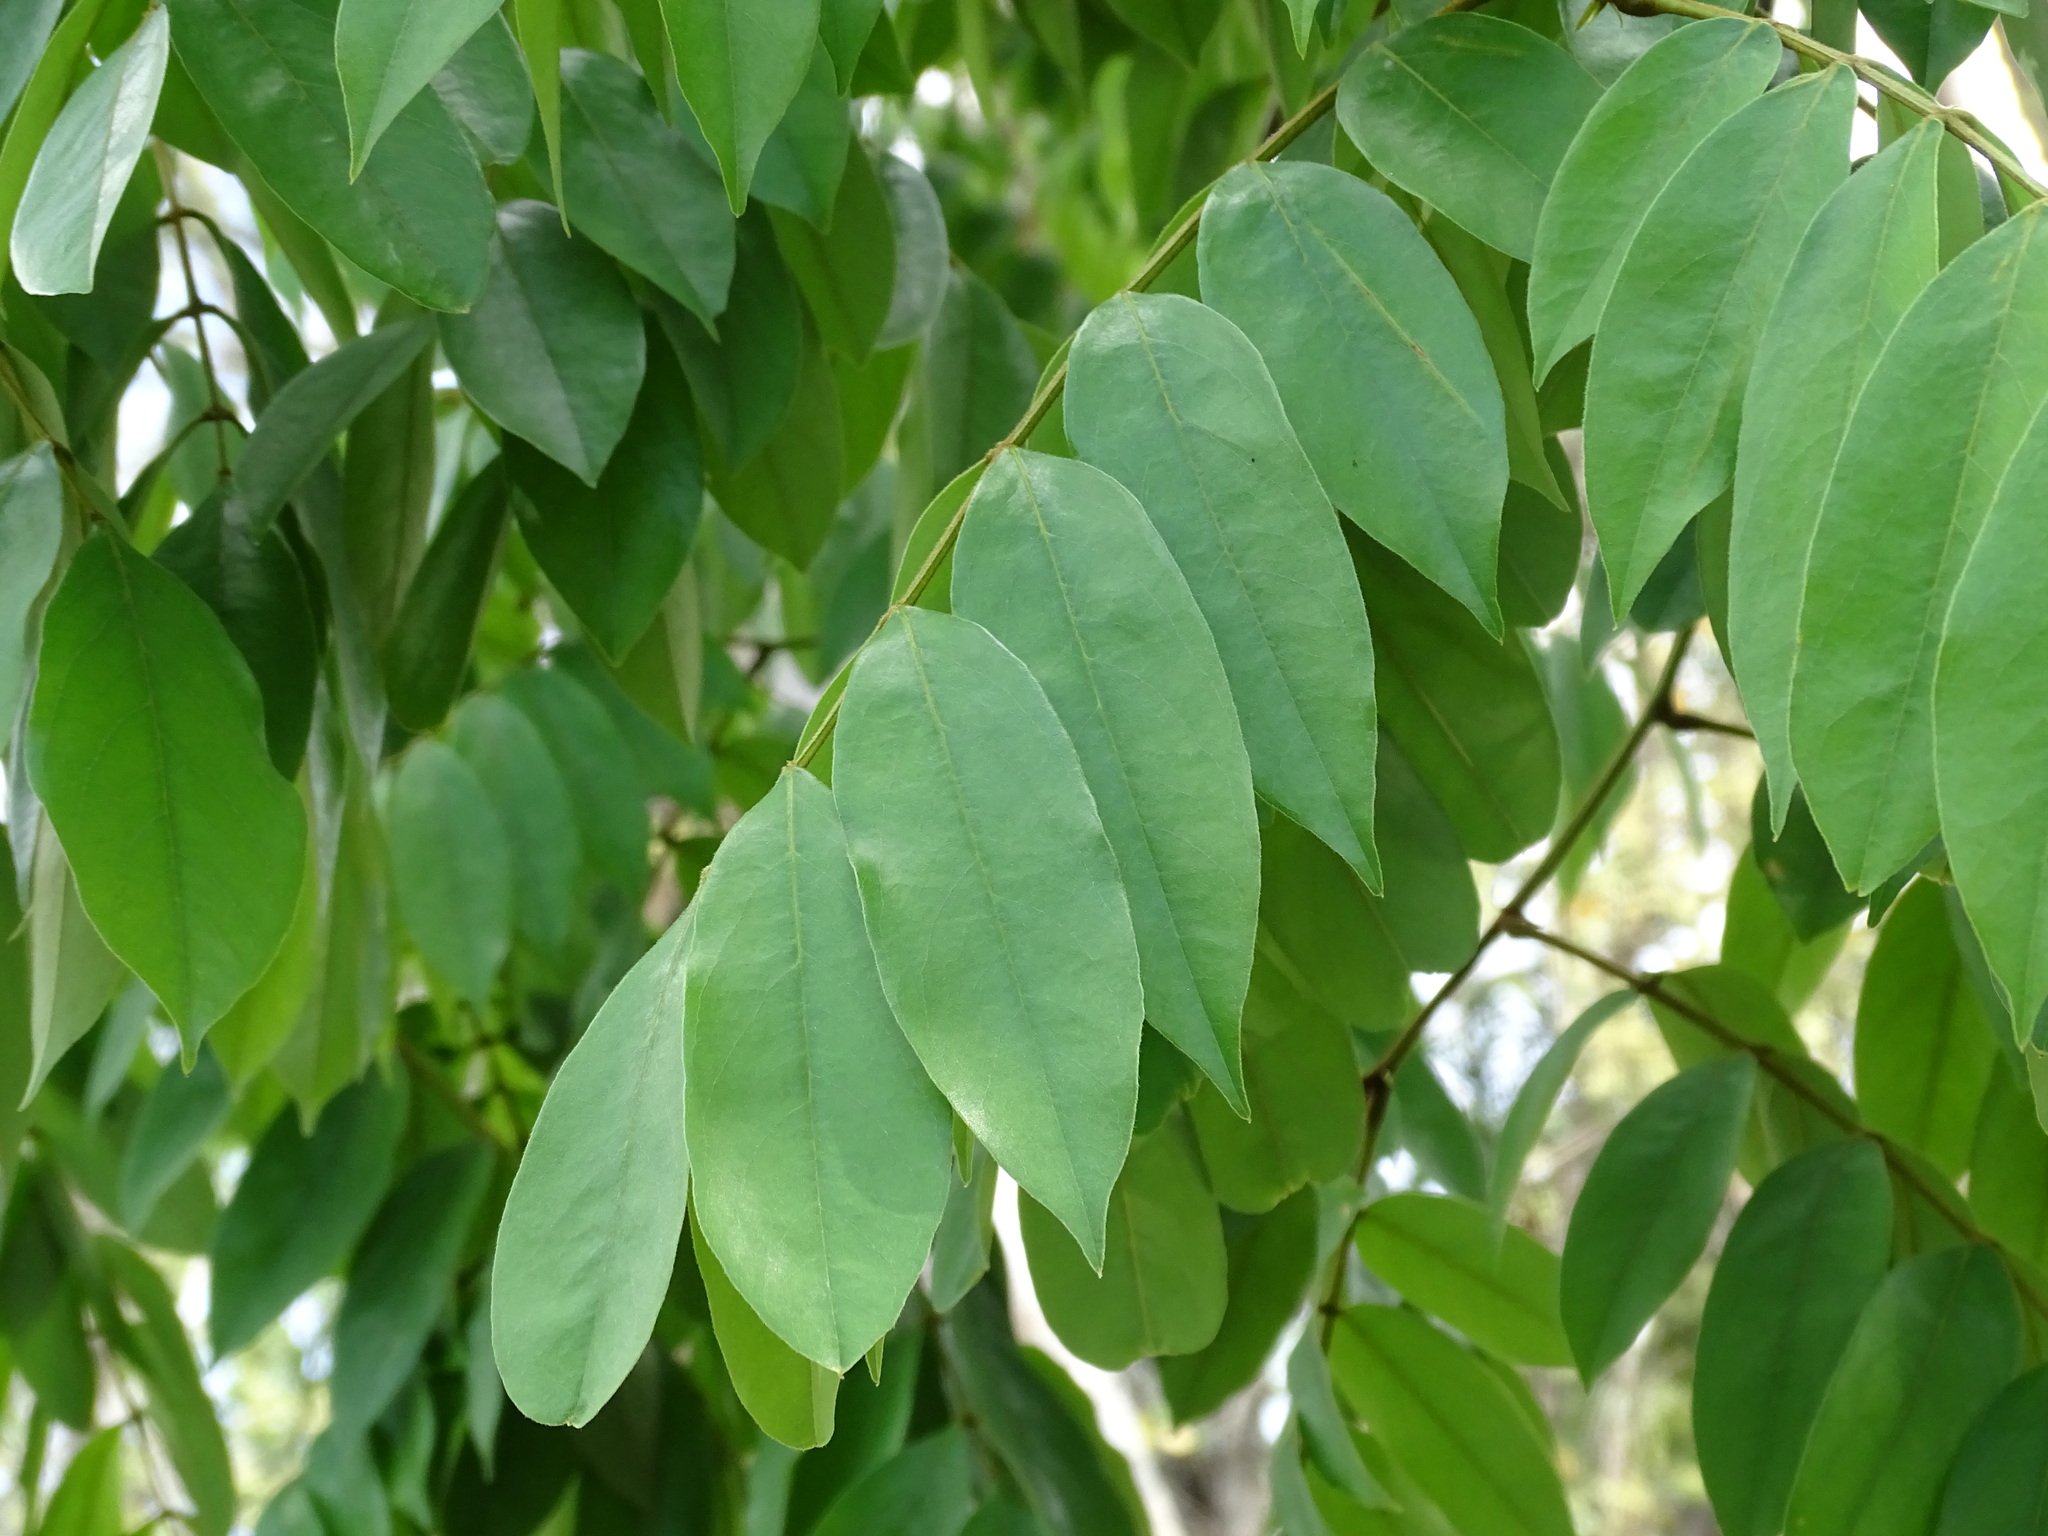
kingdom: Plantae
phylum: Tracheophyta
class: Magnoliopsida
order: Fabales
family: Fabaceae
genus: Swartzia
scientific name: Swartzia cubensis
